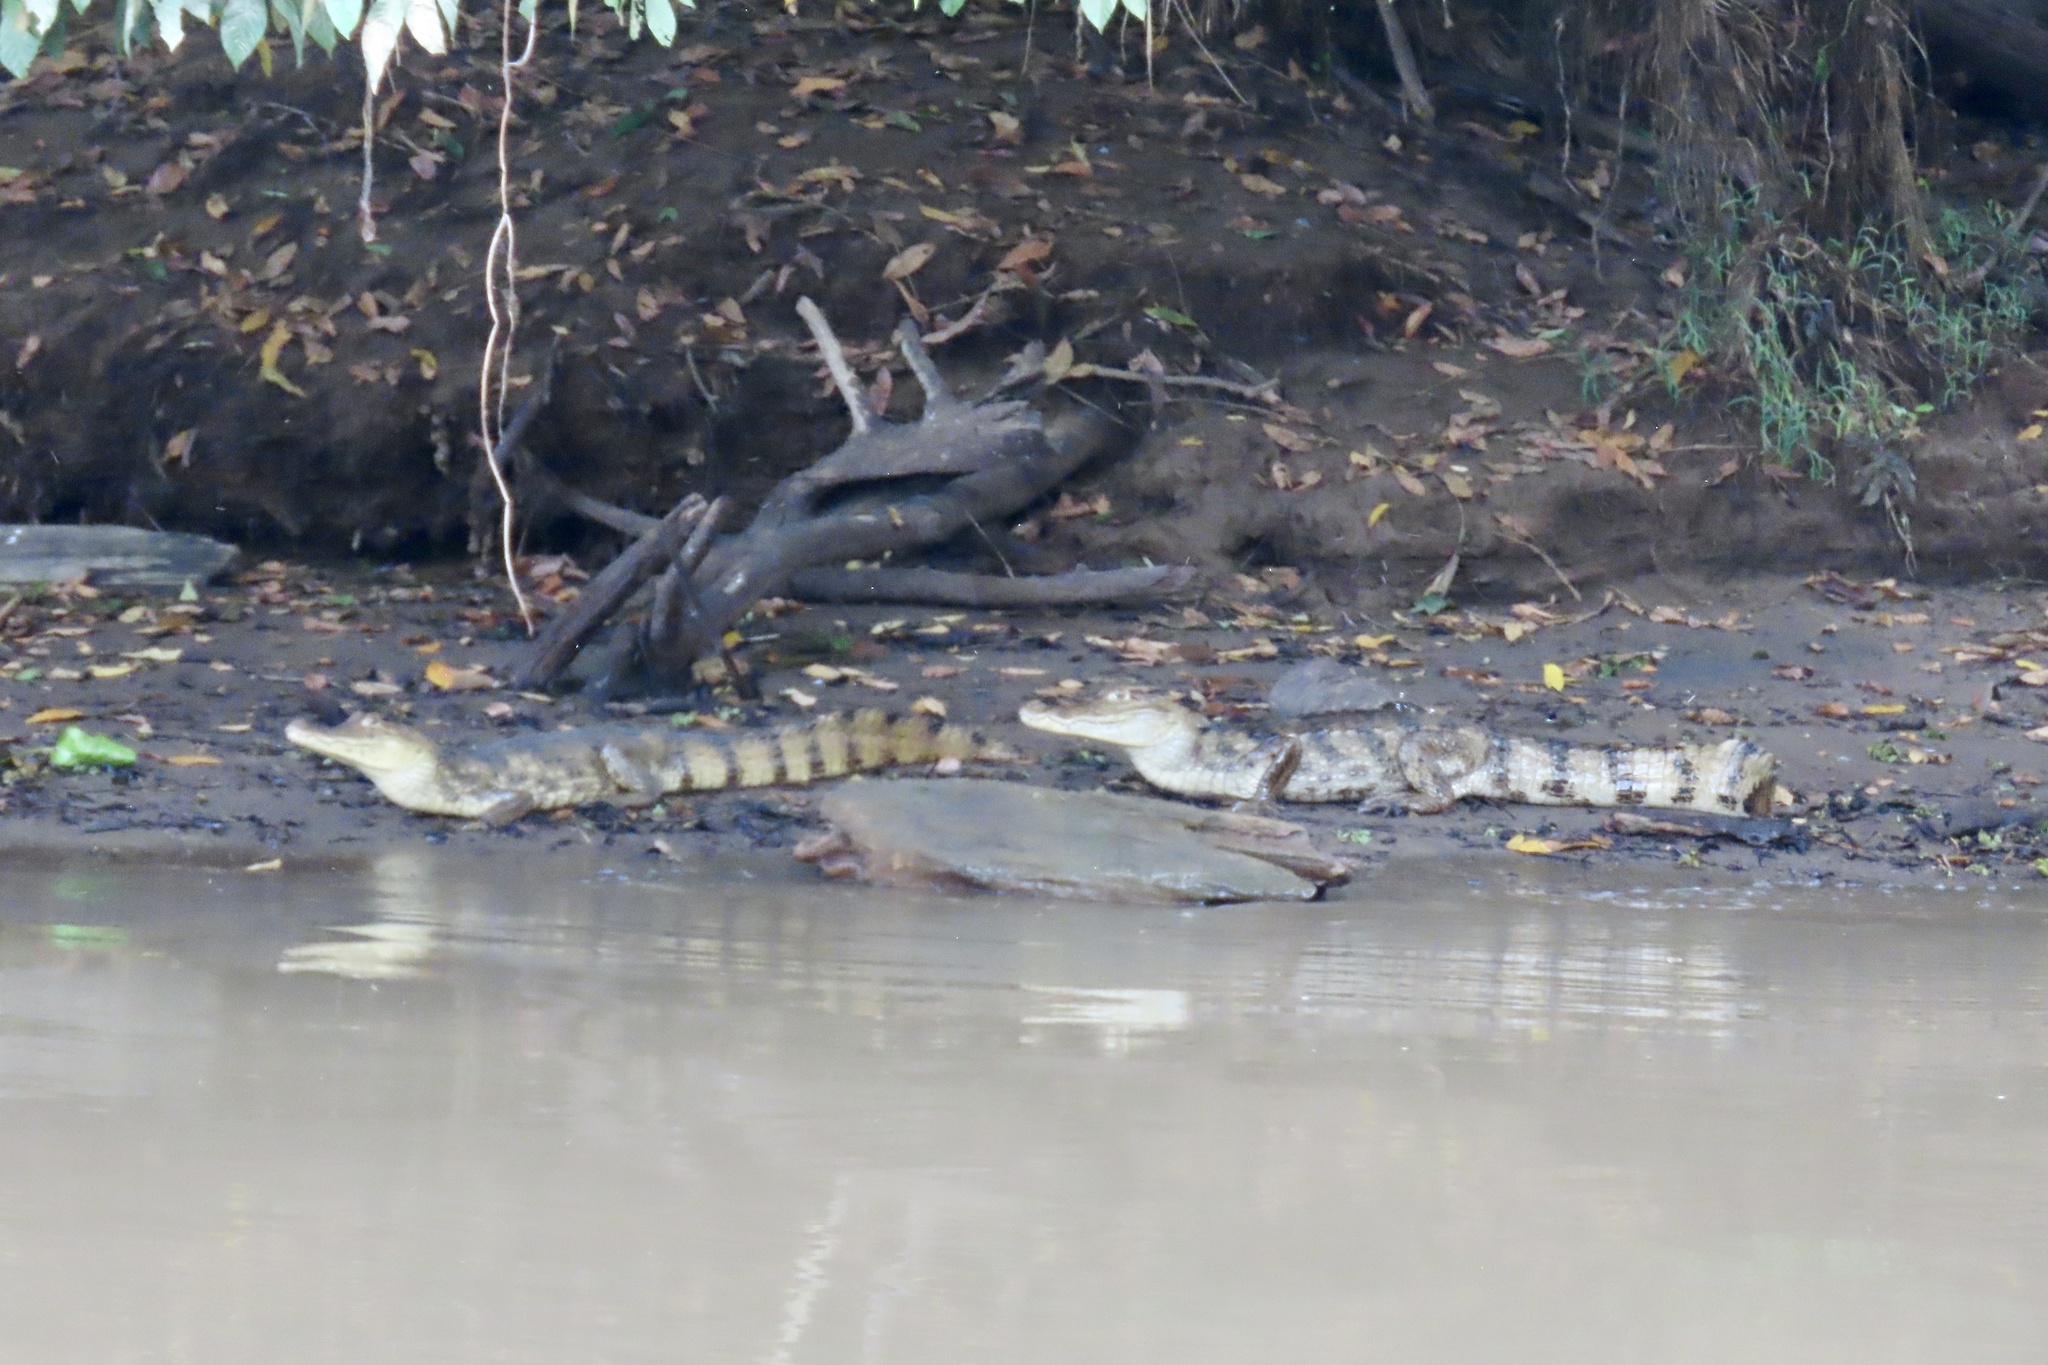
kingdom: Animalia
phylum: Chordata
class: Crocodylia
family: Alligatoridae
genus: Caiman
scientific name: Caiman crocodilus
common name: Common caiman
